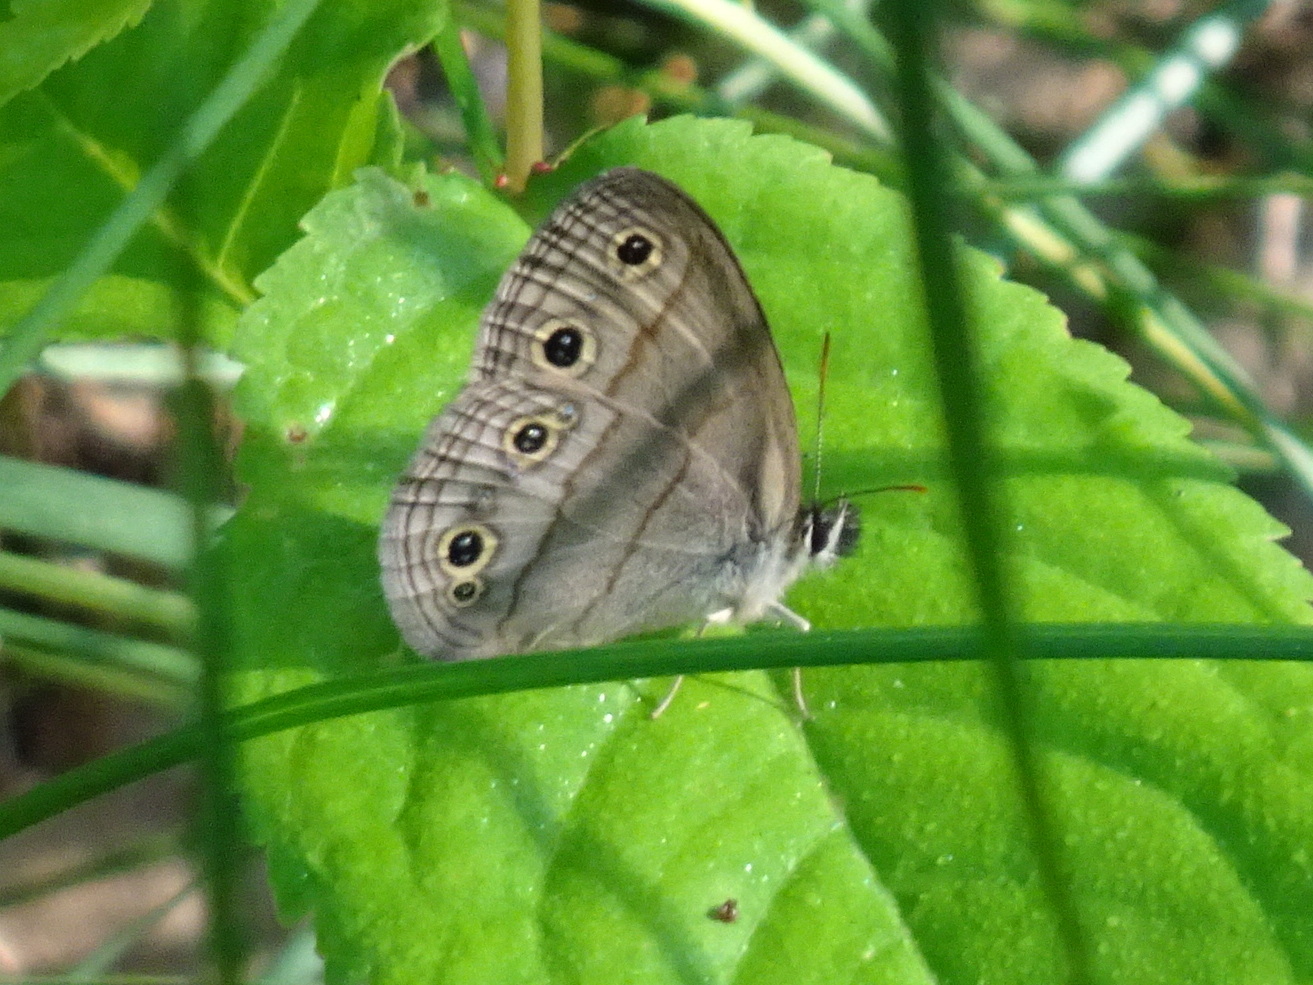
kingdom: Animalia
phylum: Arthropoda
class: Insecta
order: Lepidoptera
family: Nymphalidae
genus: Euptychia
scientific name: Euptychia cymela
